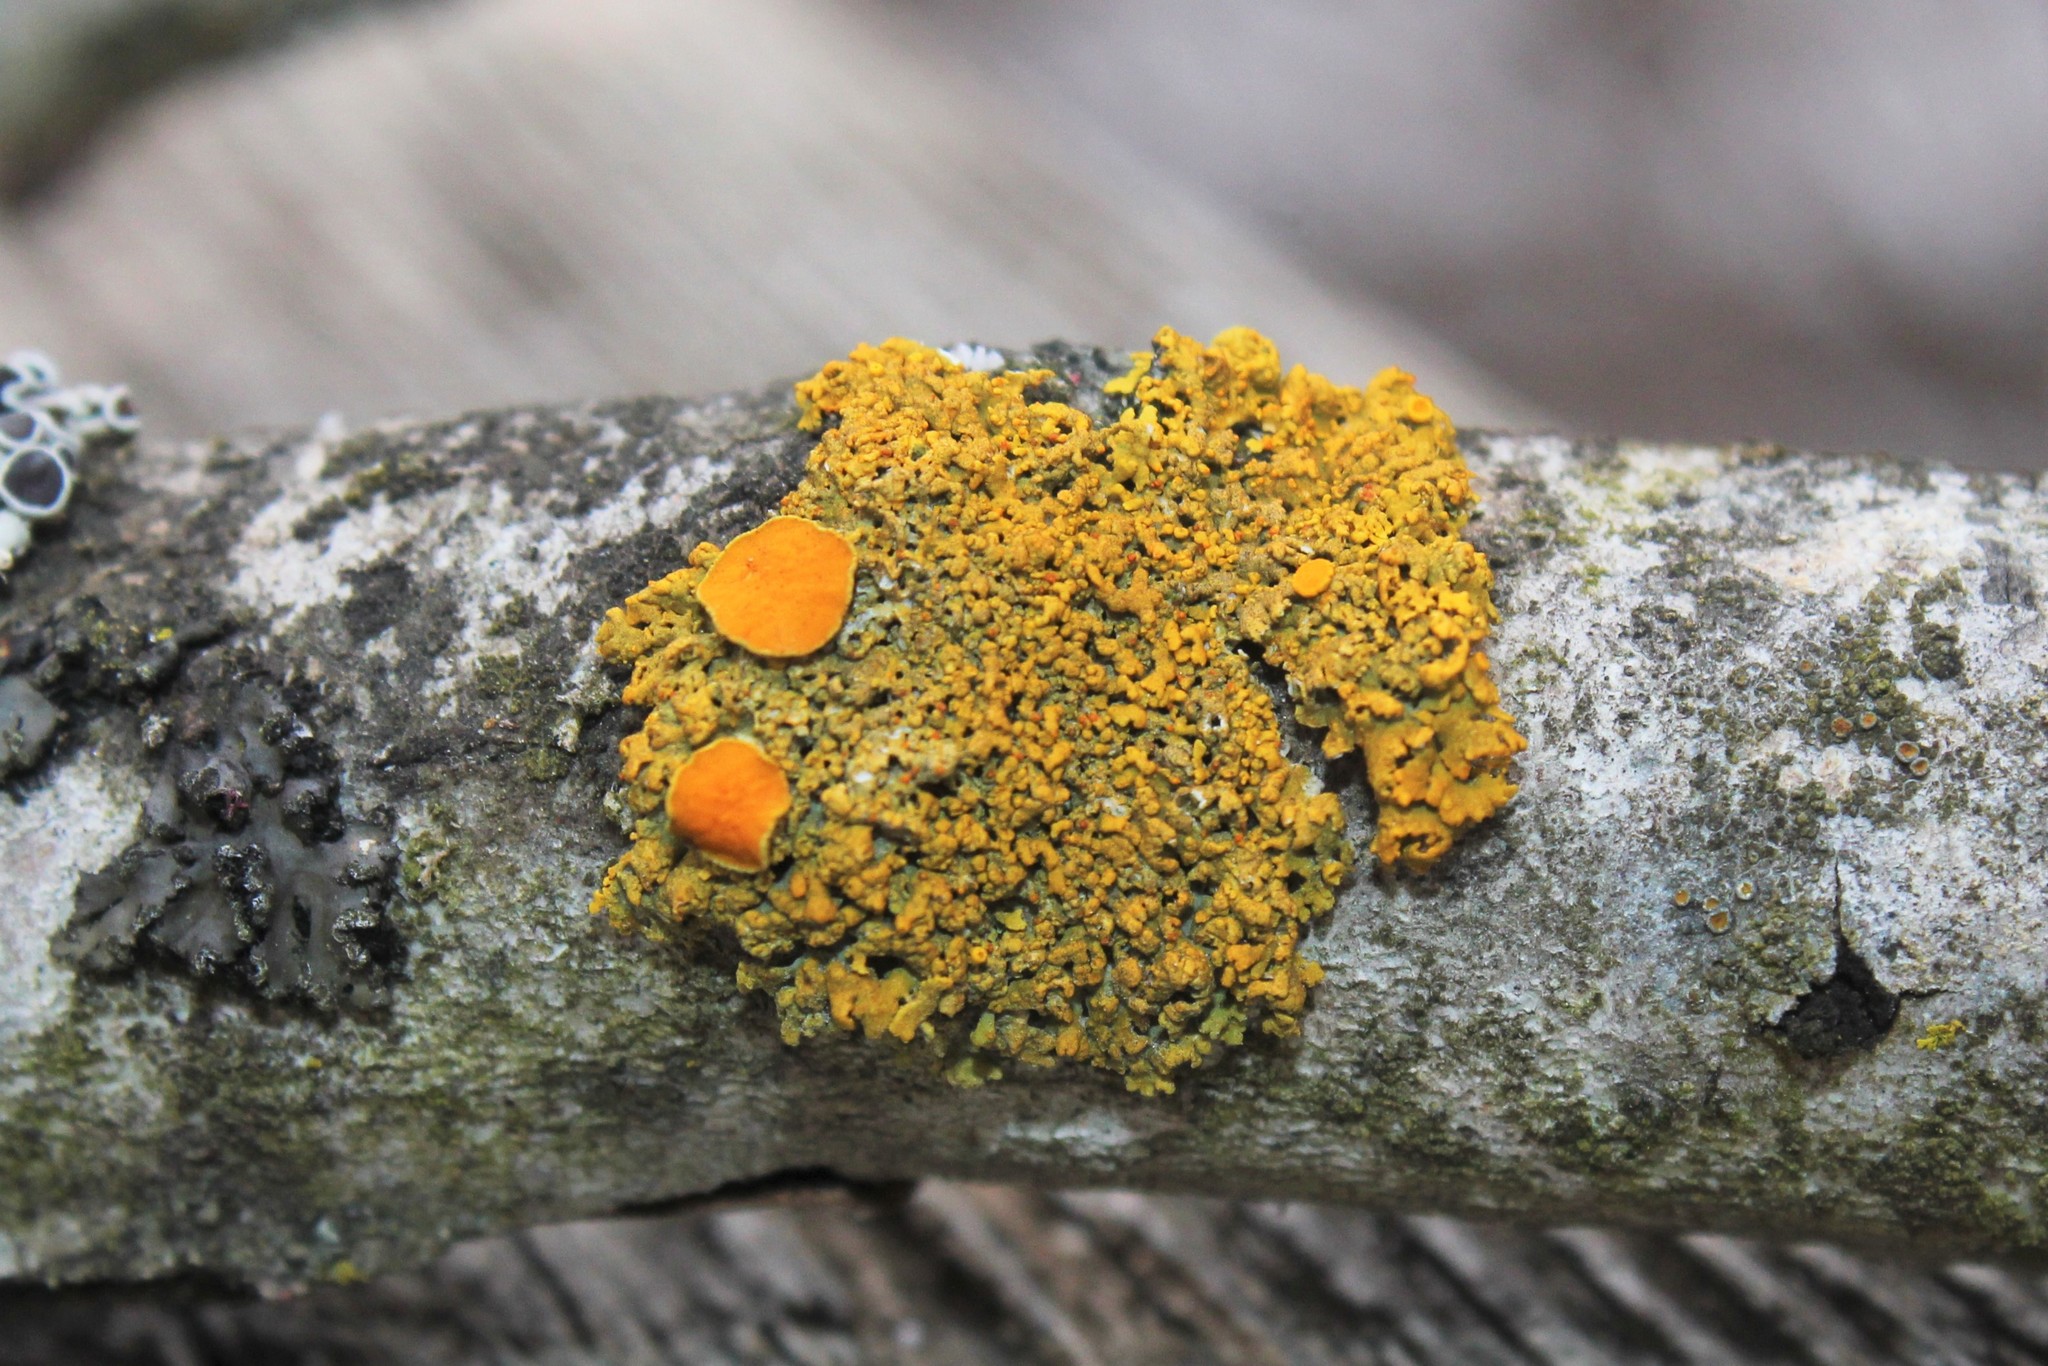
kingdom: Fungi
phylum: Ascomycota
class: Lecanoromycetes
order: Teloschistales
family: Teloschistaceae
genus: Gallowayella
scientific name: Gallowayella hasseana
